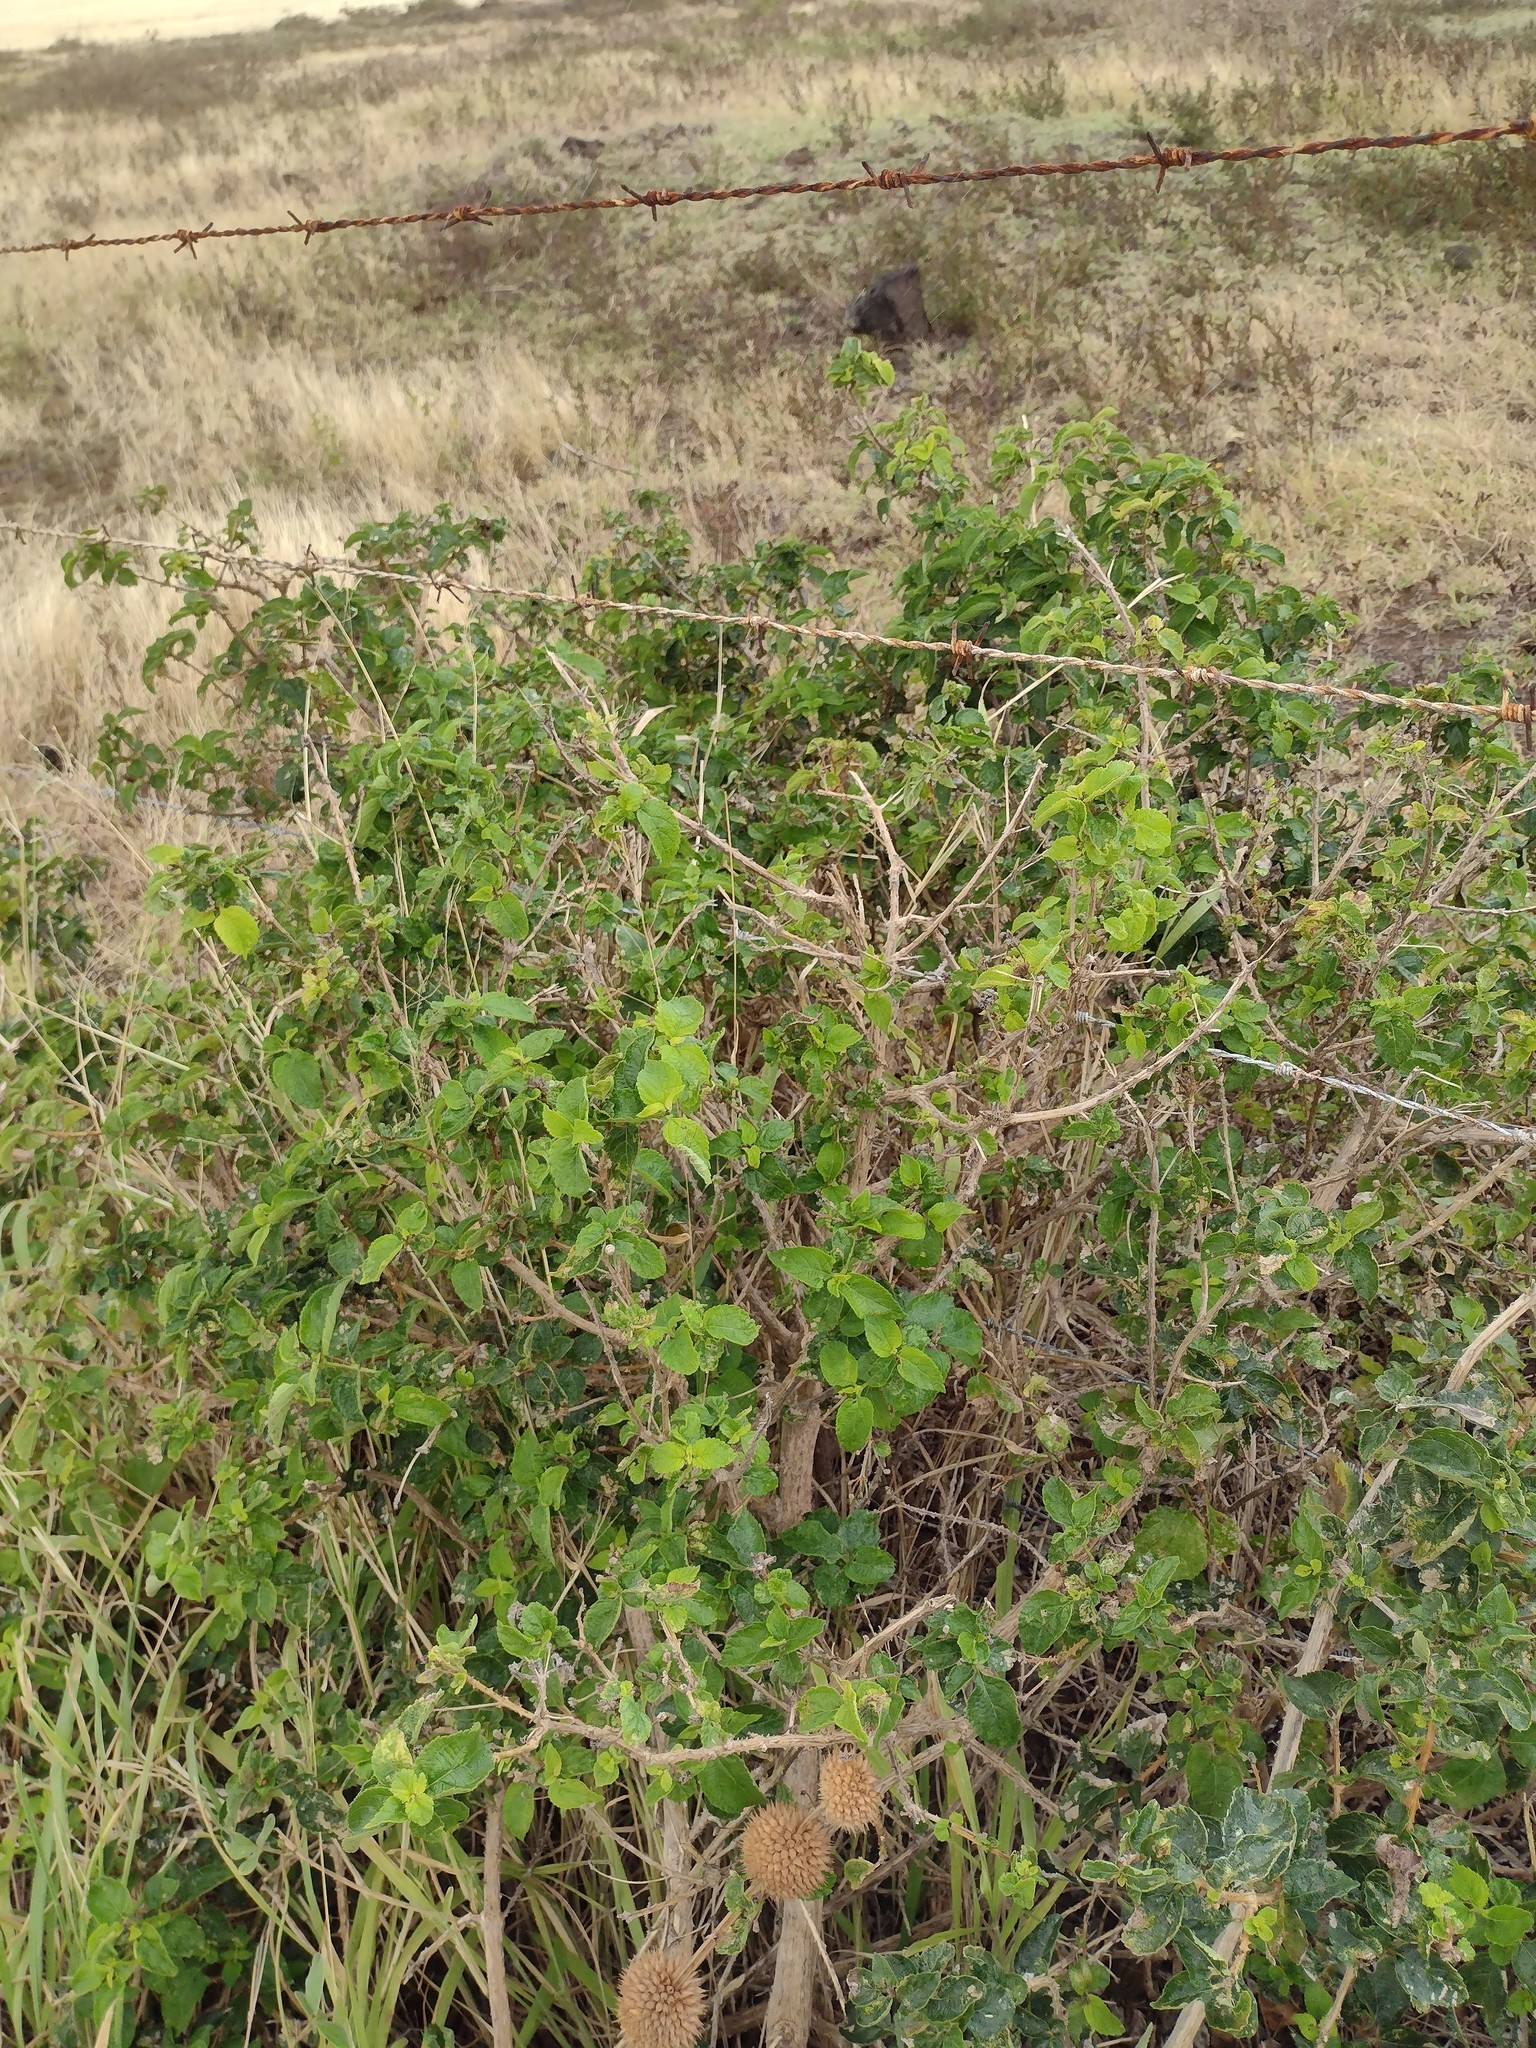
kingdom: Plantae
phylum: Tracheophyta
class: Magnoliopsida
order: Lamiales
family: Verbenaceae
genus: Lantana
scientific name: Lantana camara
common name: Lantana
